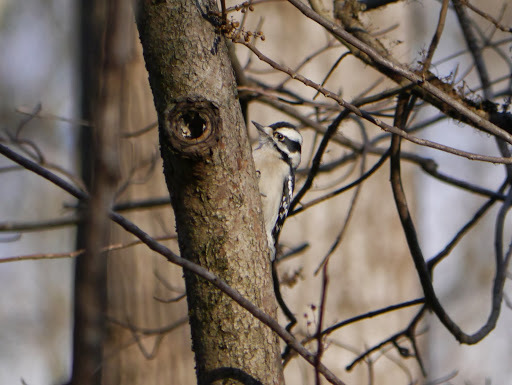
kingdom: Animalia
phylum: Chordata
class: Aves
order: Piciformes
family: Picidae
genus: Dryobates
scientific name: Dryobates pubescens
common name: Downy woodpecker
